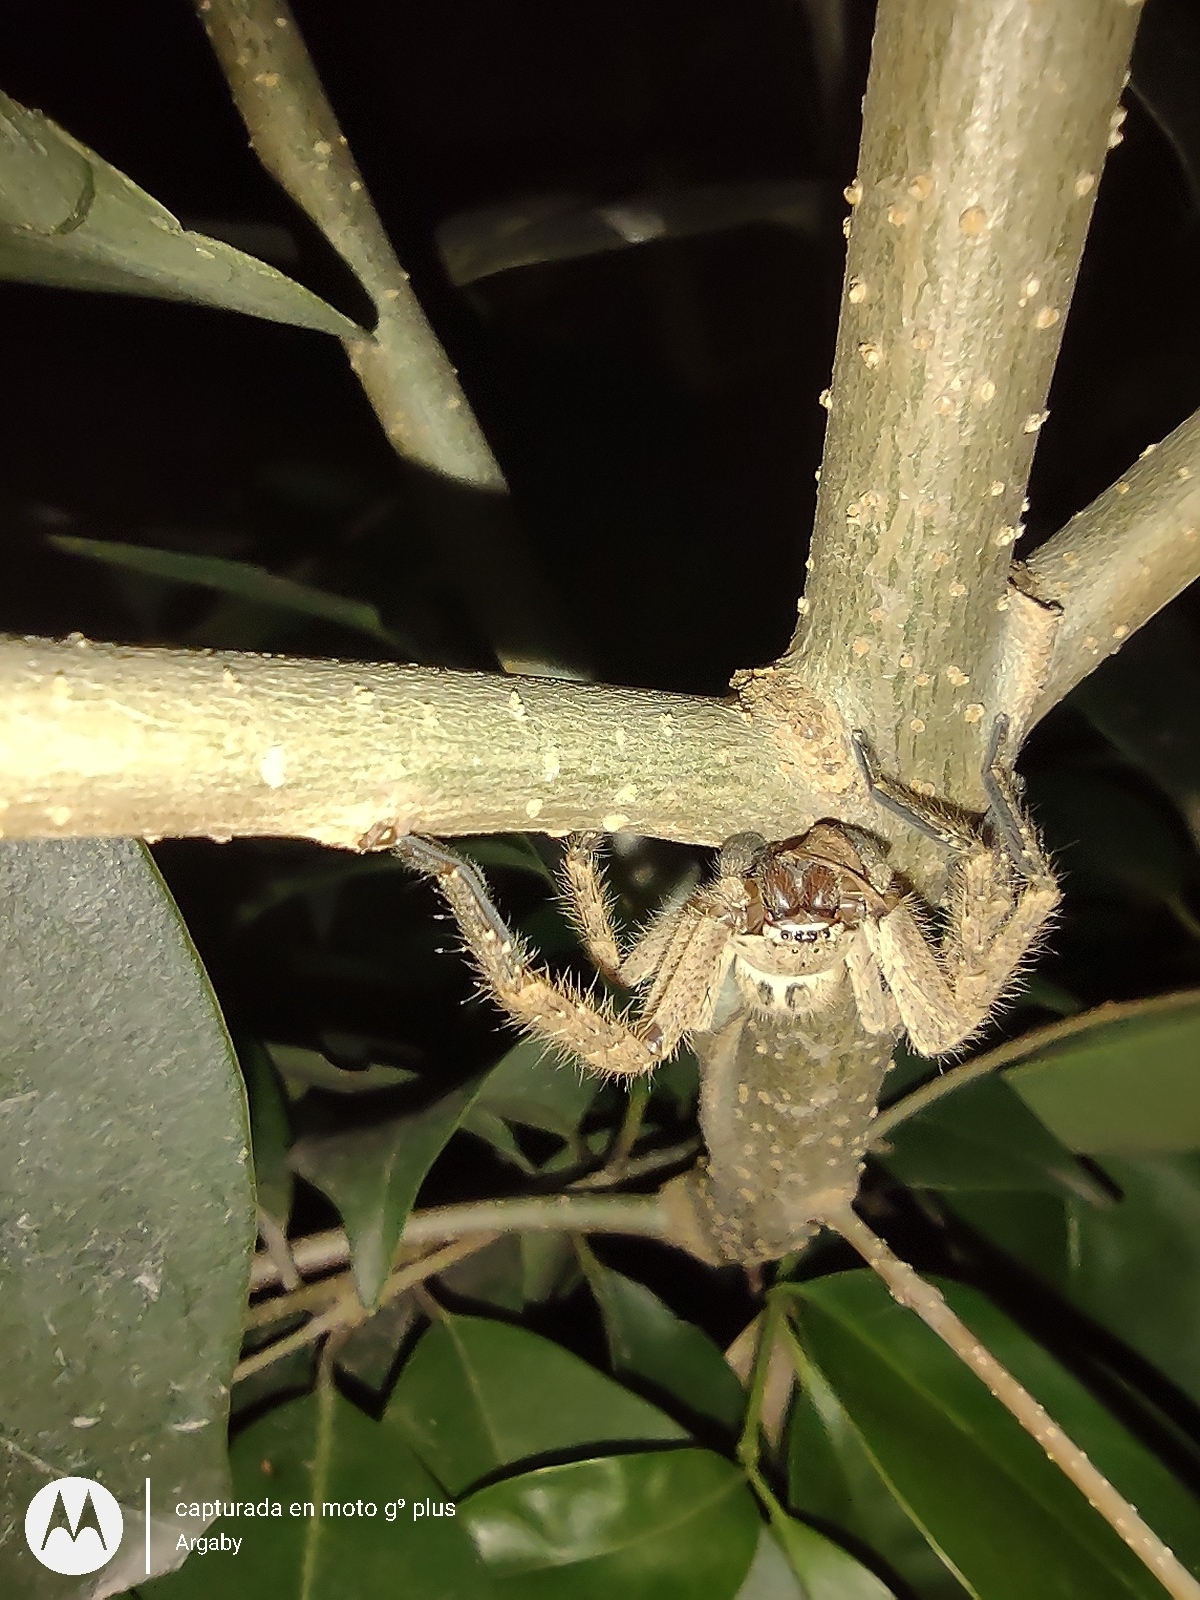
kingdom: Animalia
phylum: Arthropoda
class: Arachnida
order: Araneae
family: Sparassidae
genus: Polybetes
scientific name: Polybetes rapidus
